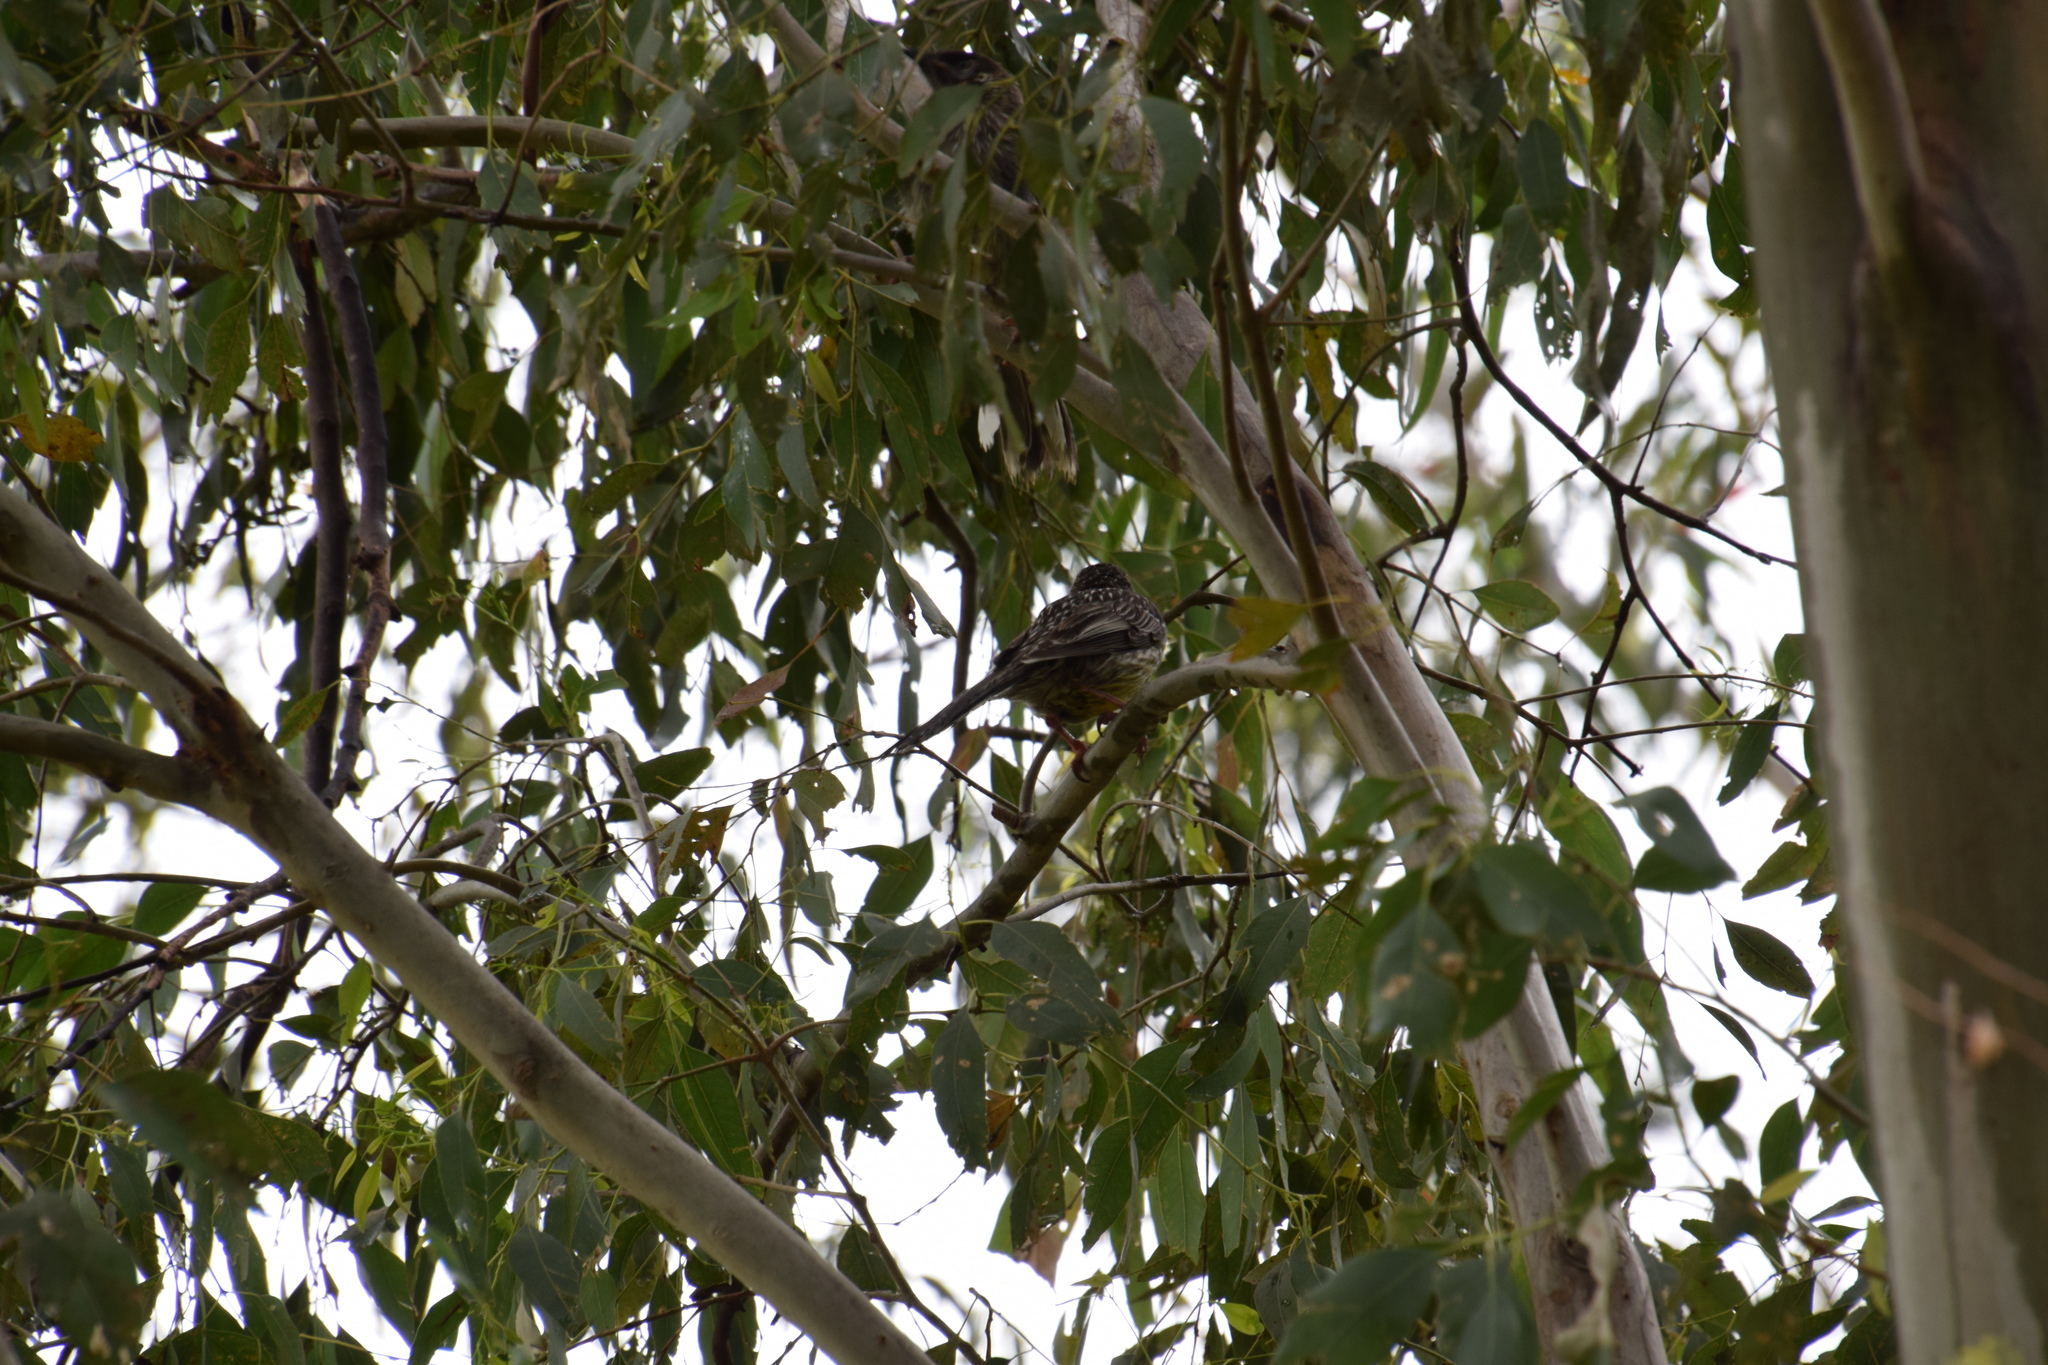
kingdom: Animalia
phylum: Chordata
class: Aves
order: Passeriformes
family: Meliphagidae
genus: Anthochaera
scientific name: Anthochaera carunculata
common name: Red wattlebird
